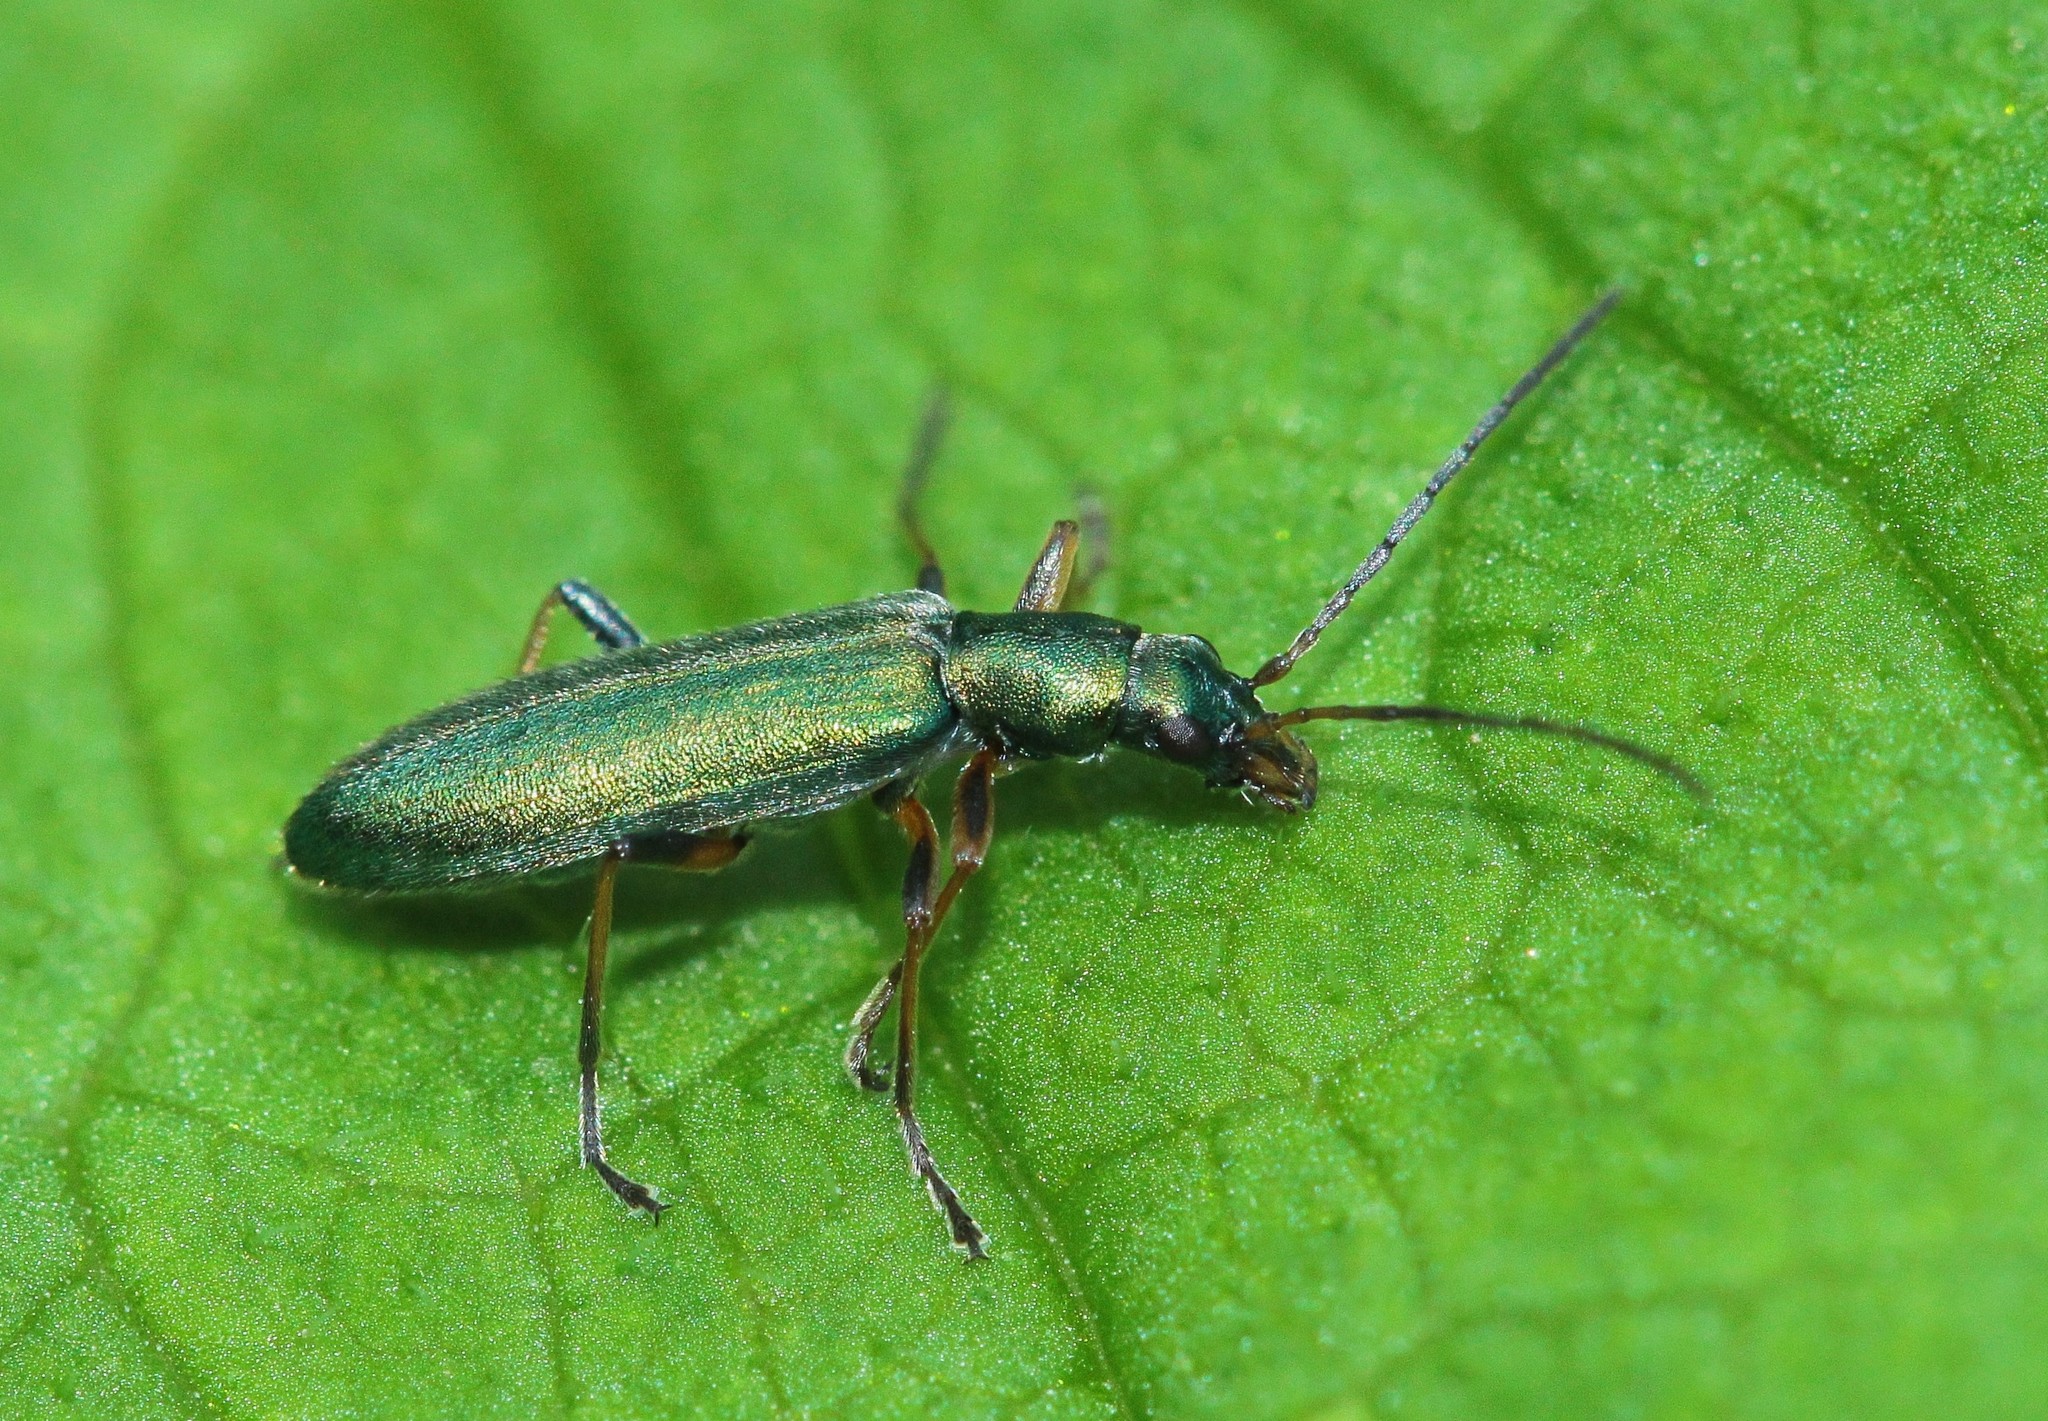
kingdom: Animalia
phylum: Arthropoda
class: Insecta
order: Coleoptera
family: Oedemeridae
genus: Chrysanthia
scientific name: Chrysanthia geniculata
